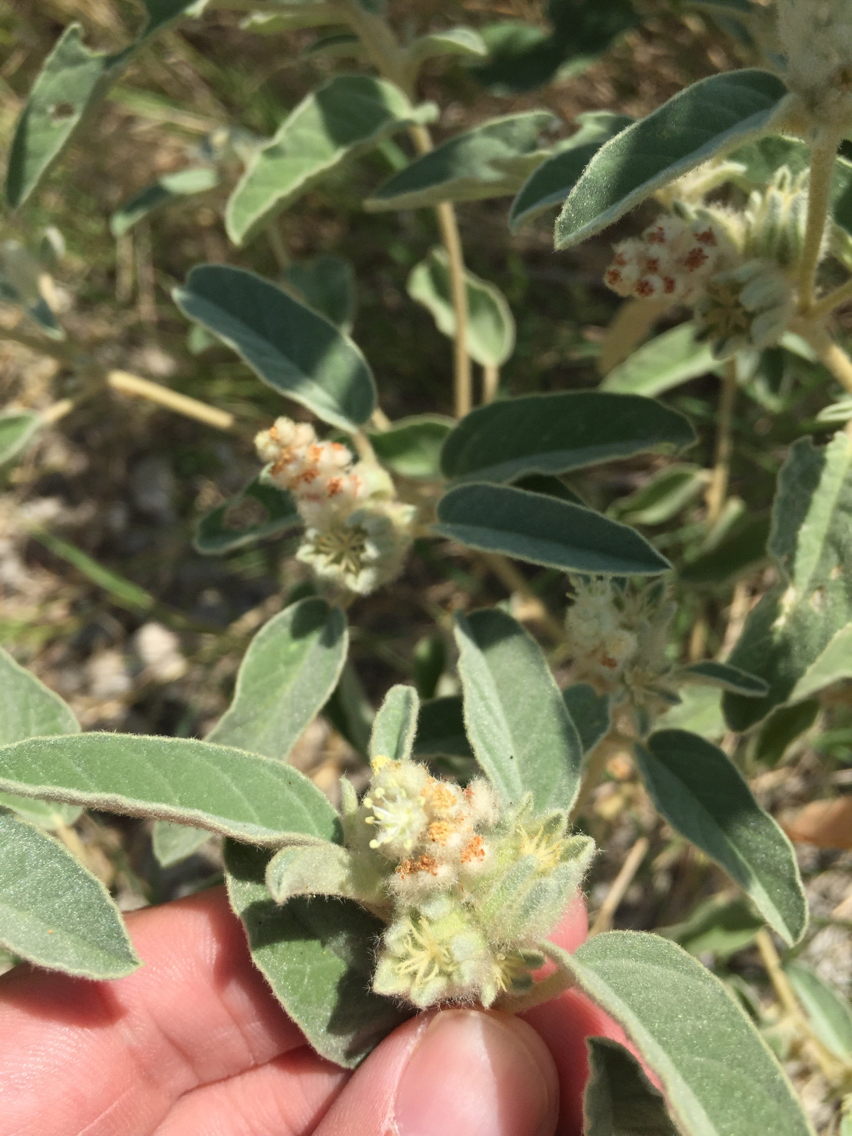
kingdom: Plantae
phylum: Tracheophyta
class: Magnoliopsida
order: Malpighiales
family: Euphorbiaceae
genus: Croton
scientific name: Croton capitatus
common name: Woolly croton
